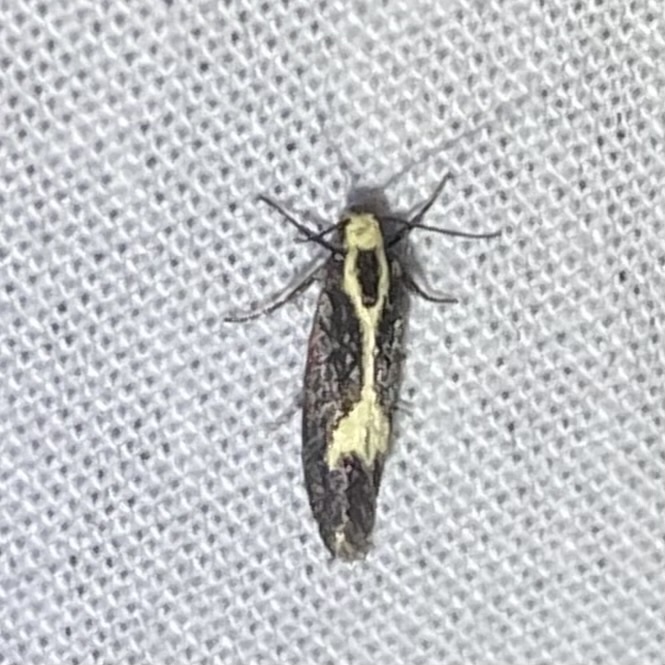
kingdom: Animalia
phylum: Arthropoda
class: Insecta
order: Lepidoptera
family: Oecophoridae
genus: Polix
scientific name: Polix coloradella
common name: Skunk moth
